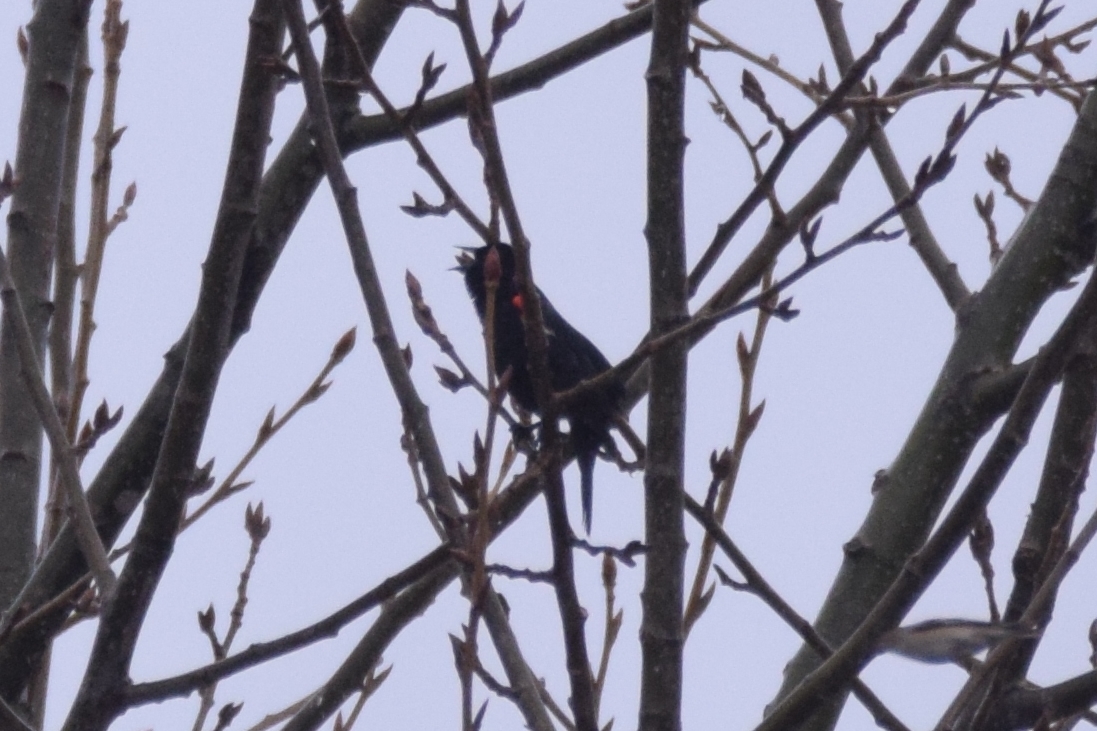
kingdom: Animalia
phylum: Chordata
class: Aves
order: Passeriformes
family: Icteridae
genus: Agelaius
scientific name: Agelaius phoeniceus
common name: Red-winged blackbird
